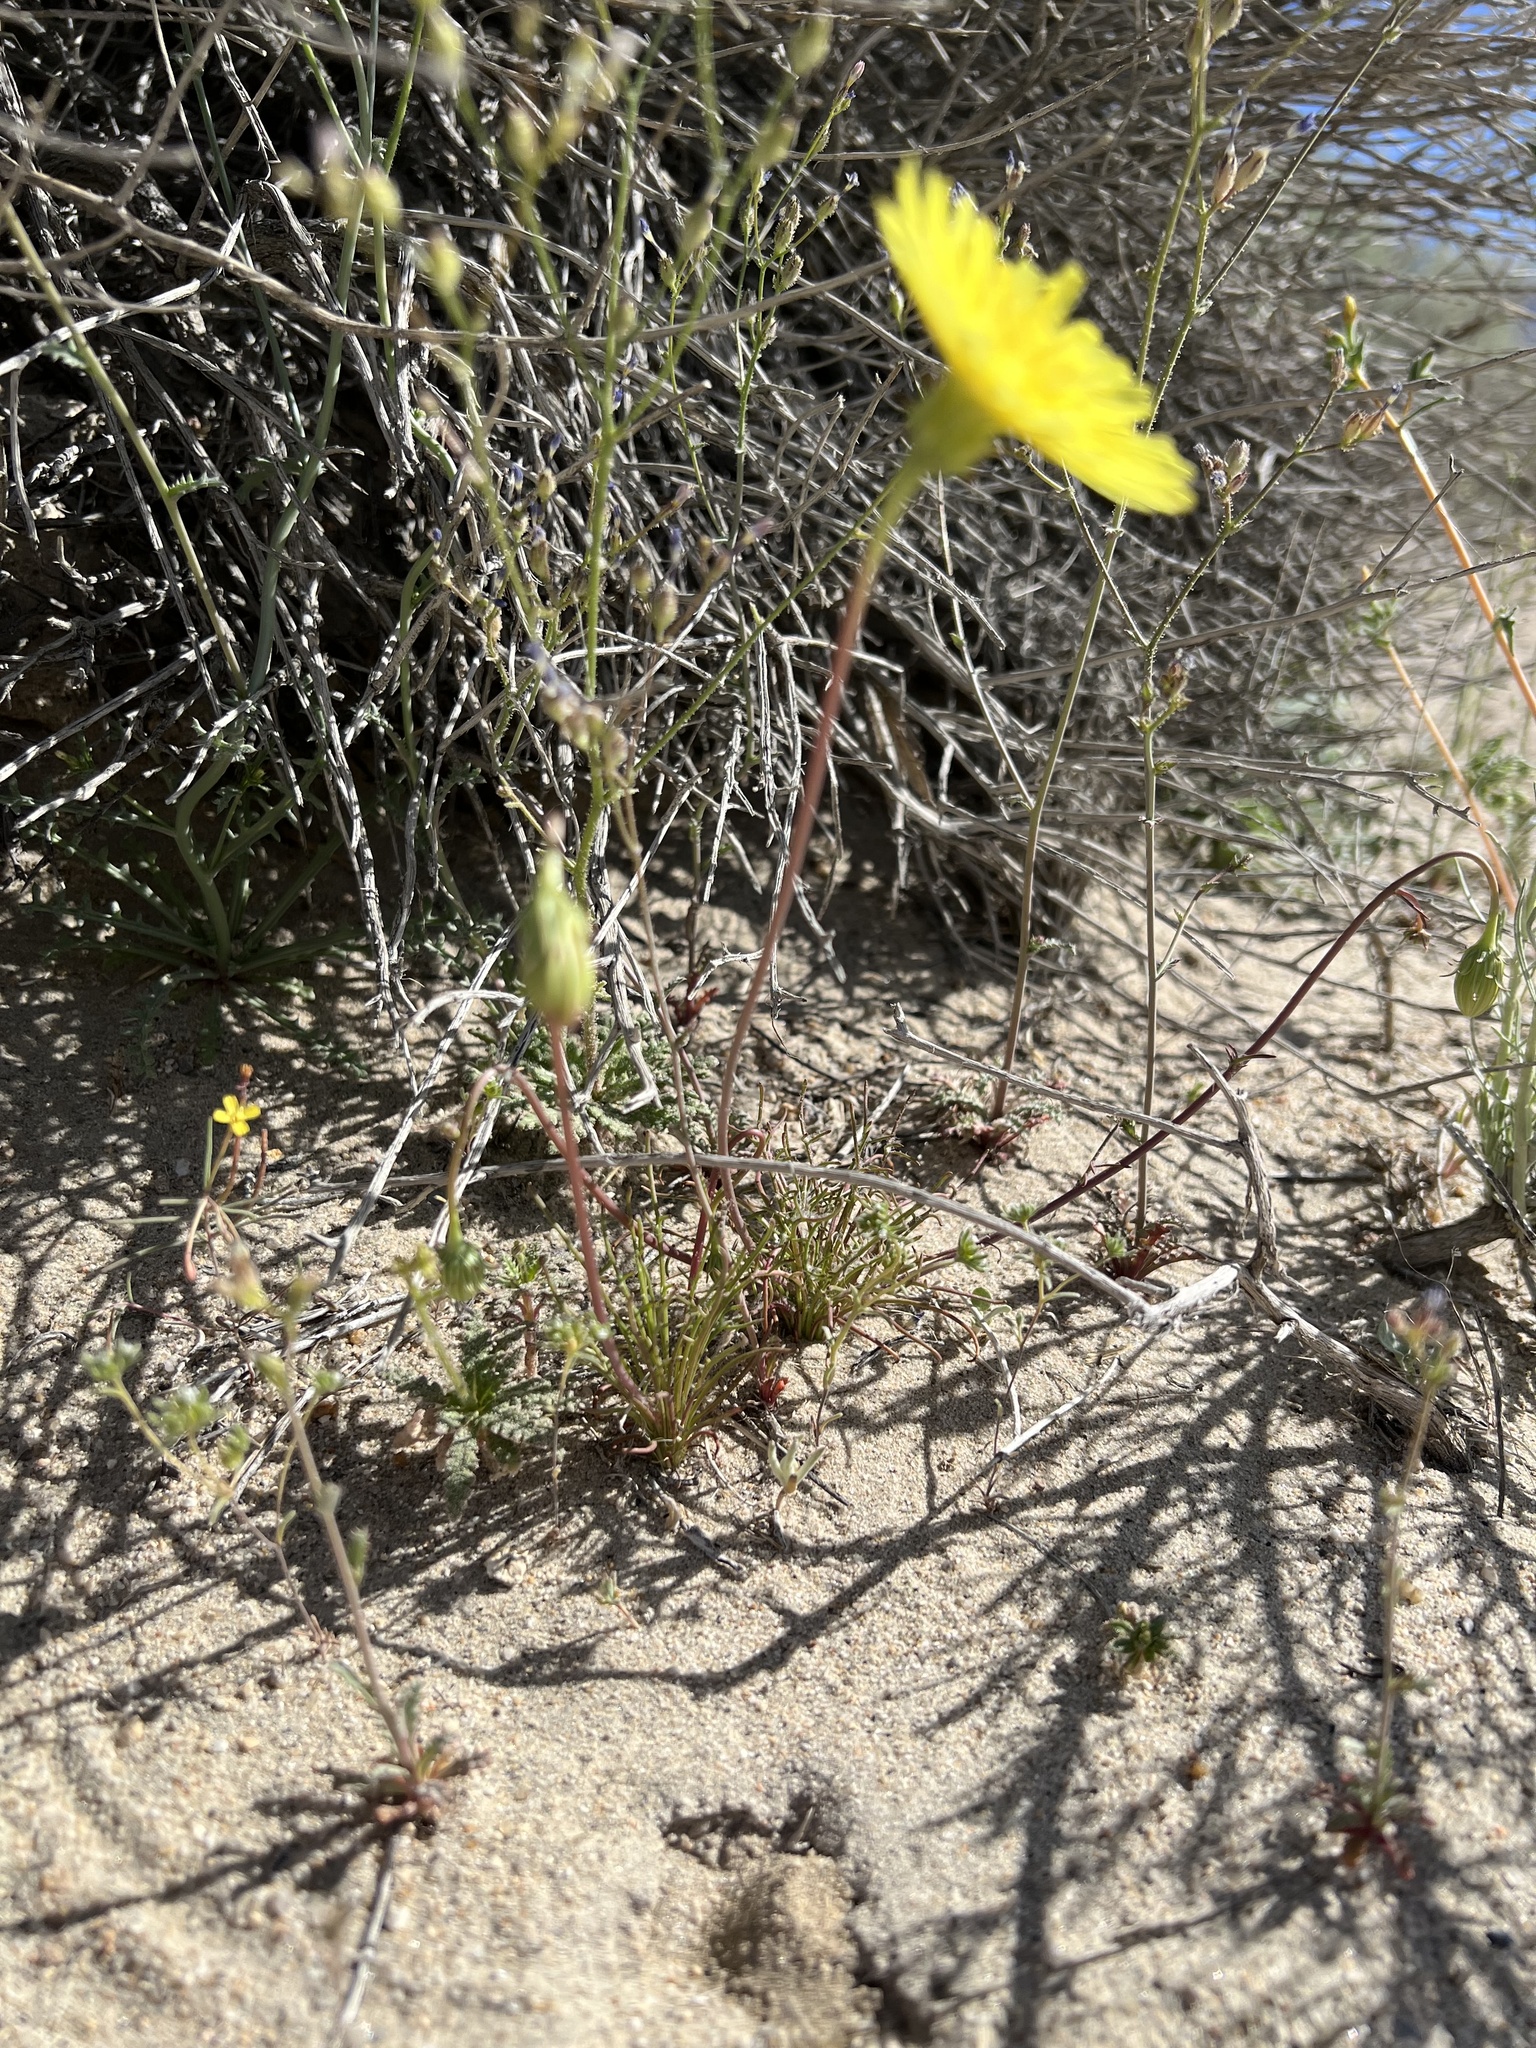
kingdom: Plantae
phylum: Tracheophyta
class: Magnoliopsida
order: Asterales
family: Asteraceae
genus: Malacothrix
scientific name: Malacothrix glabrata
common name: Smooth desert-dandelion
